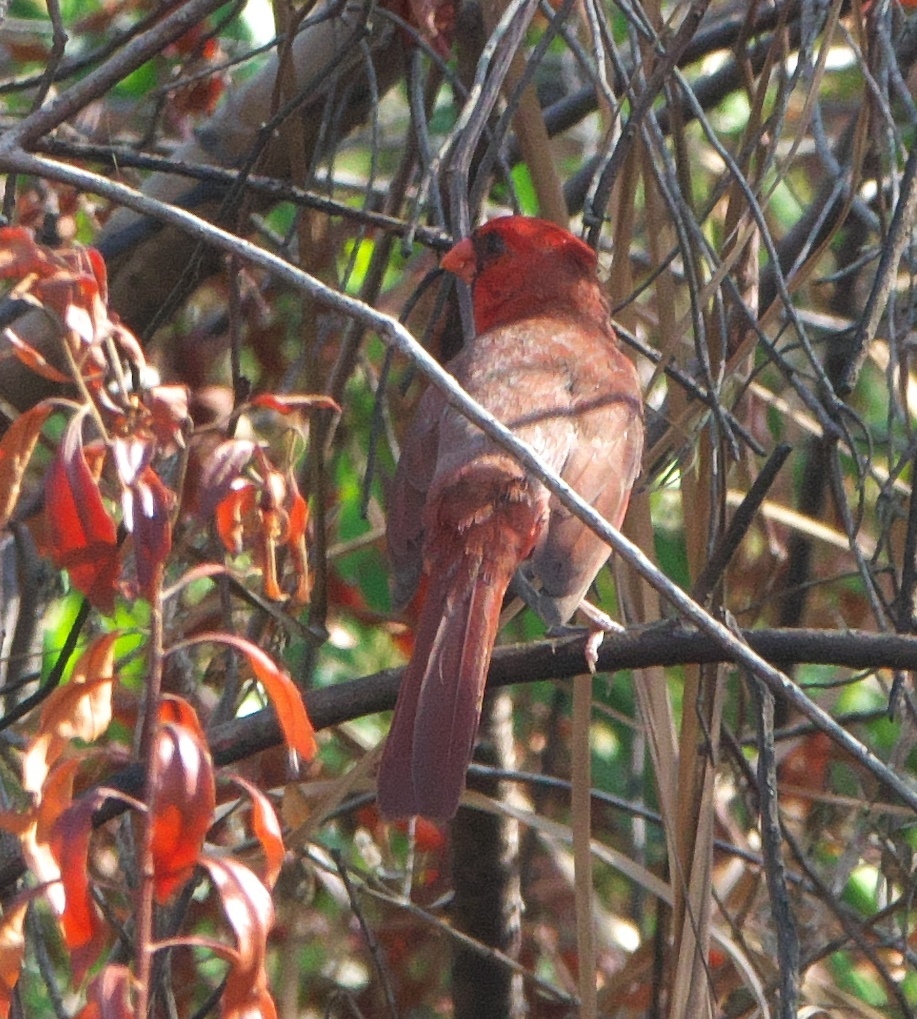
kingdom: Animalia
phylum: Chordata
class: Aves
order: Passeriformes
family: Cardinalidae
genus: Cardinalis
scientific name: Cardinalis cardinalis
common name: Northern cardinal
